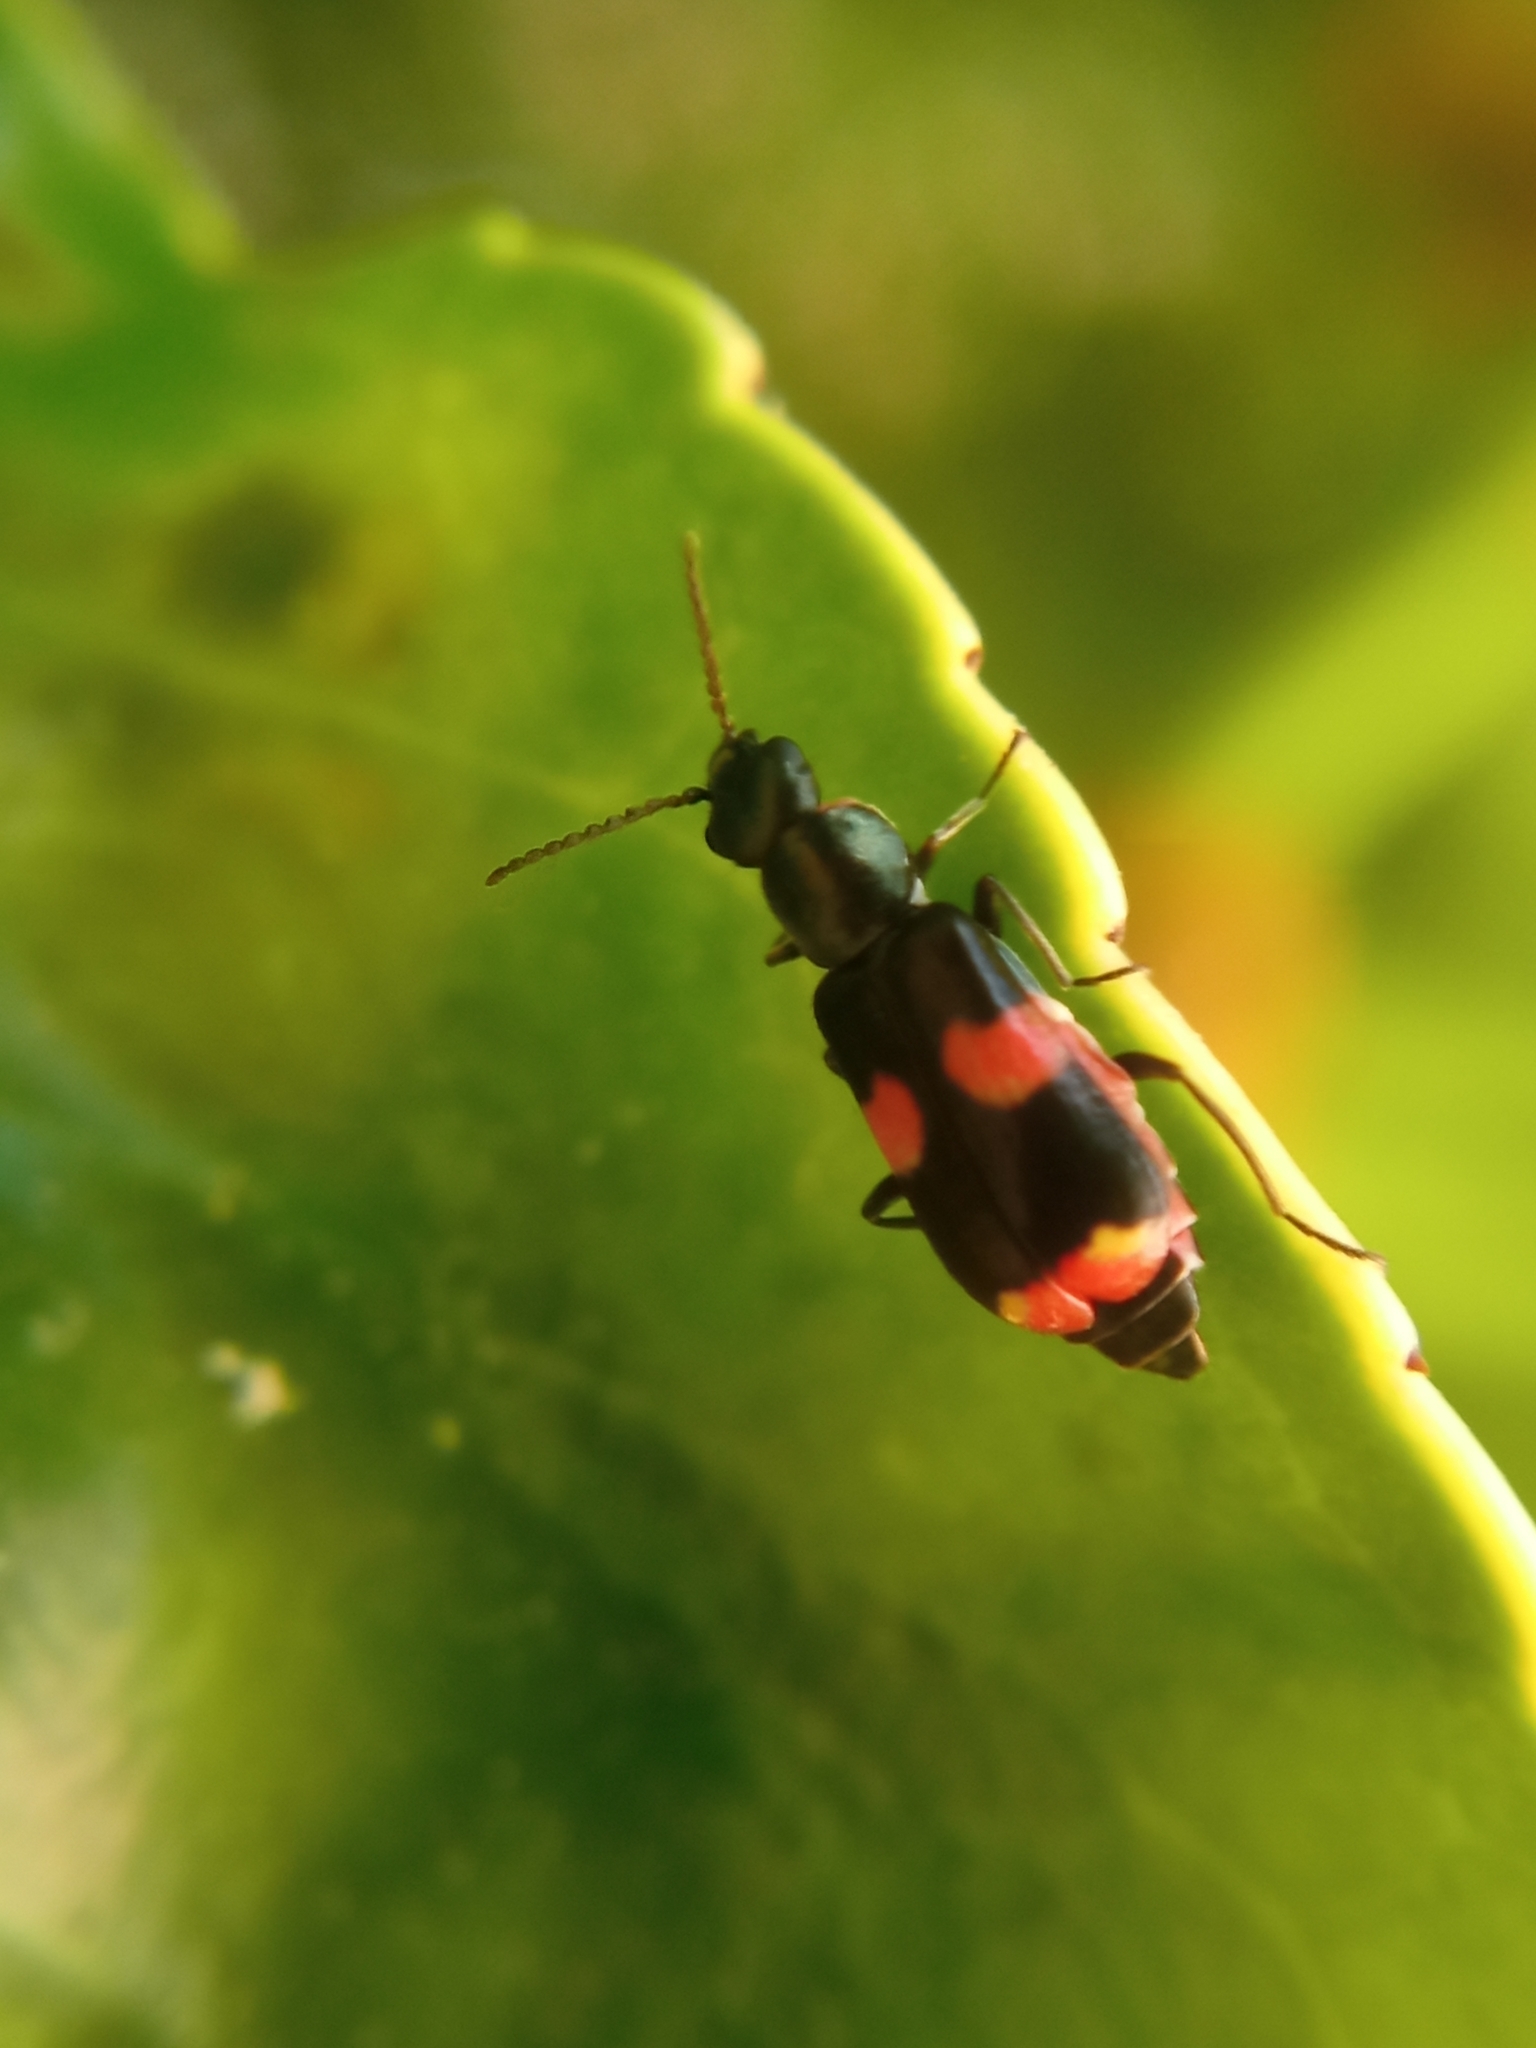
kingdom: Animalia
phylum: Arthropoda
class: Insecta
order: Coleoptera
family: Melyridae
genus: Anthocomus
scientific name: Anthocomus fasciatus
